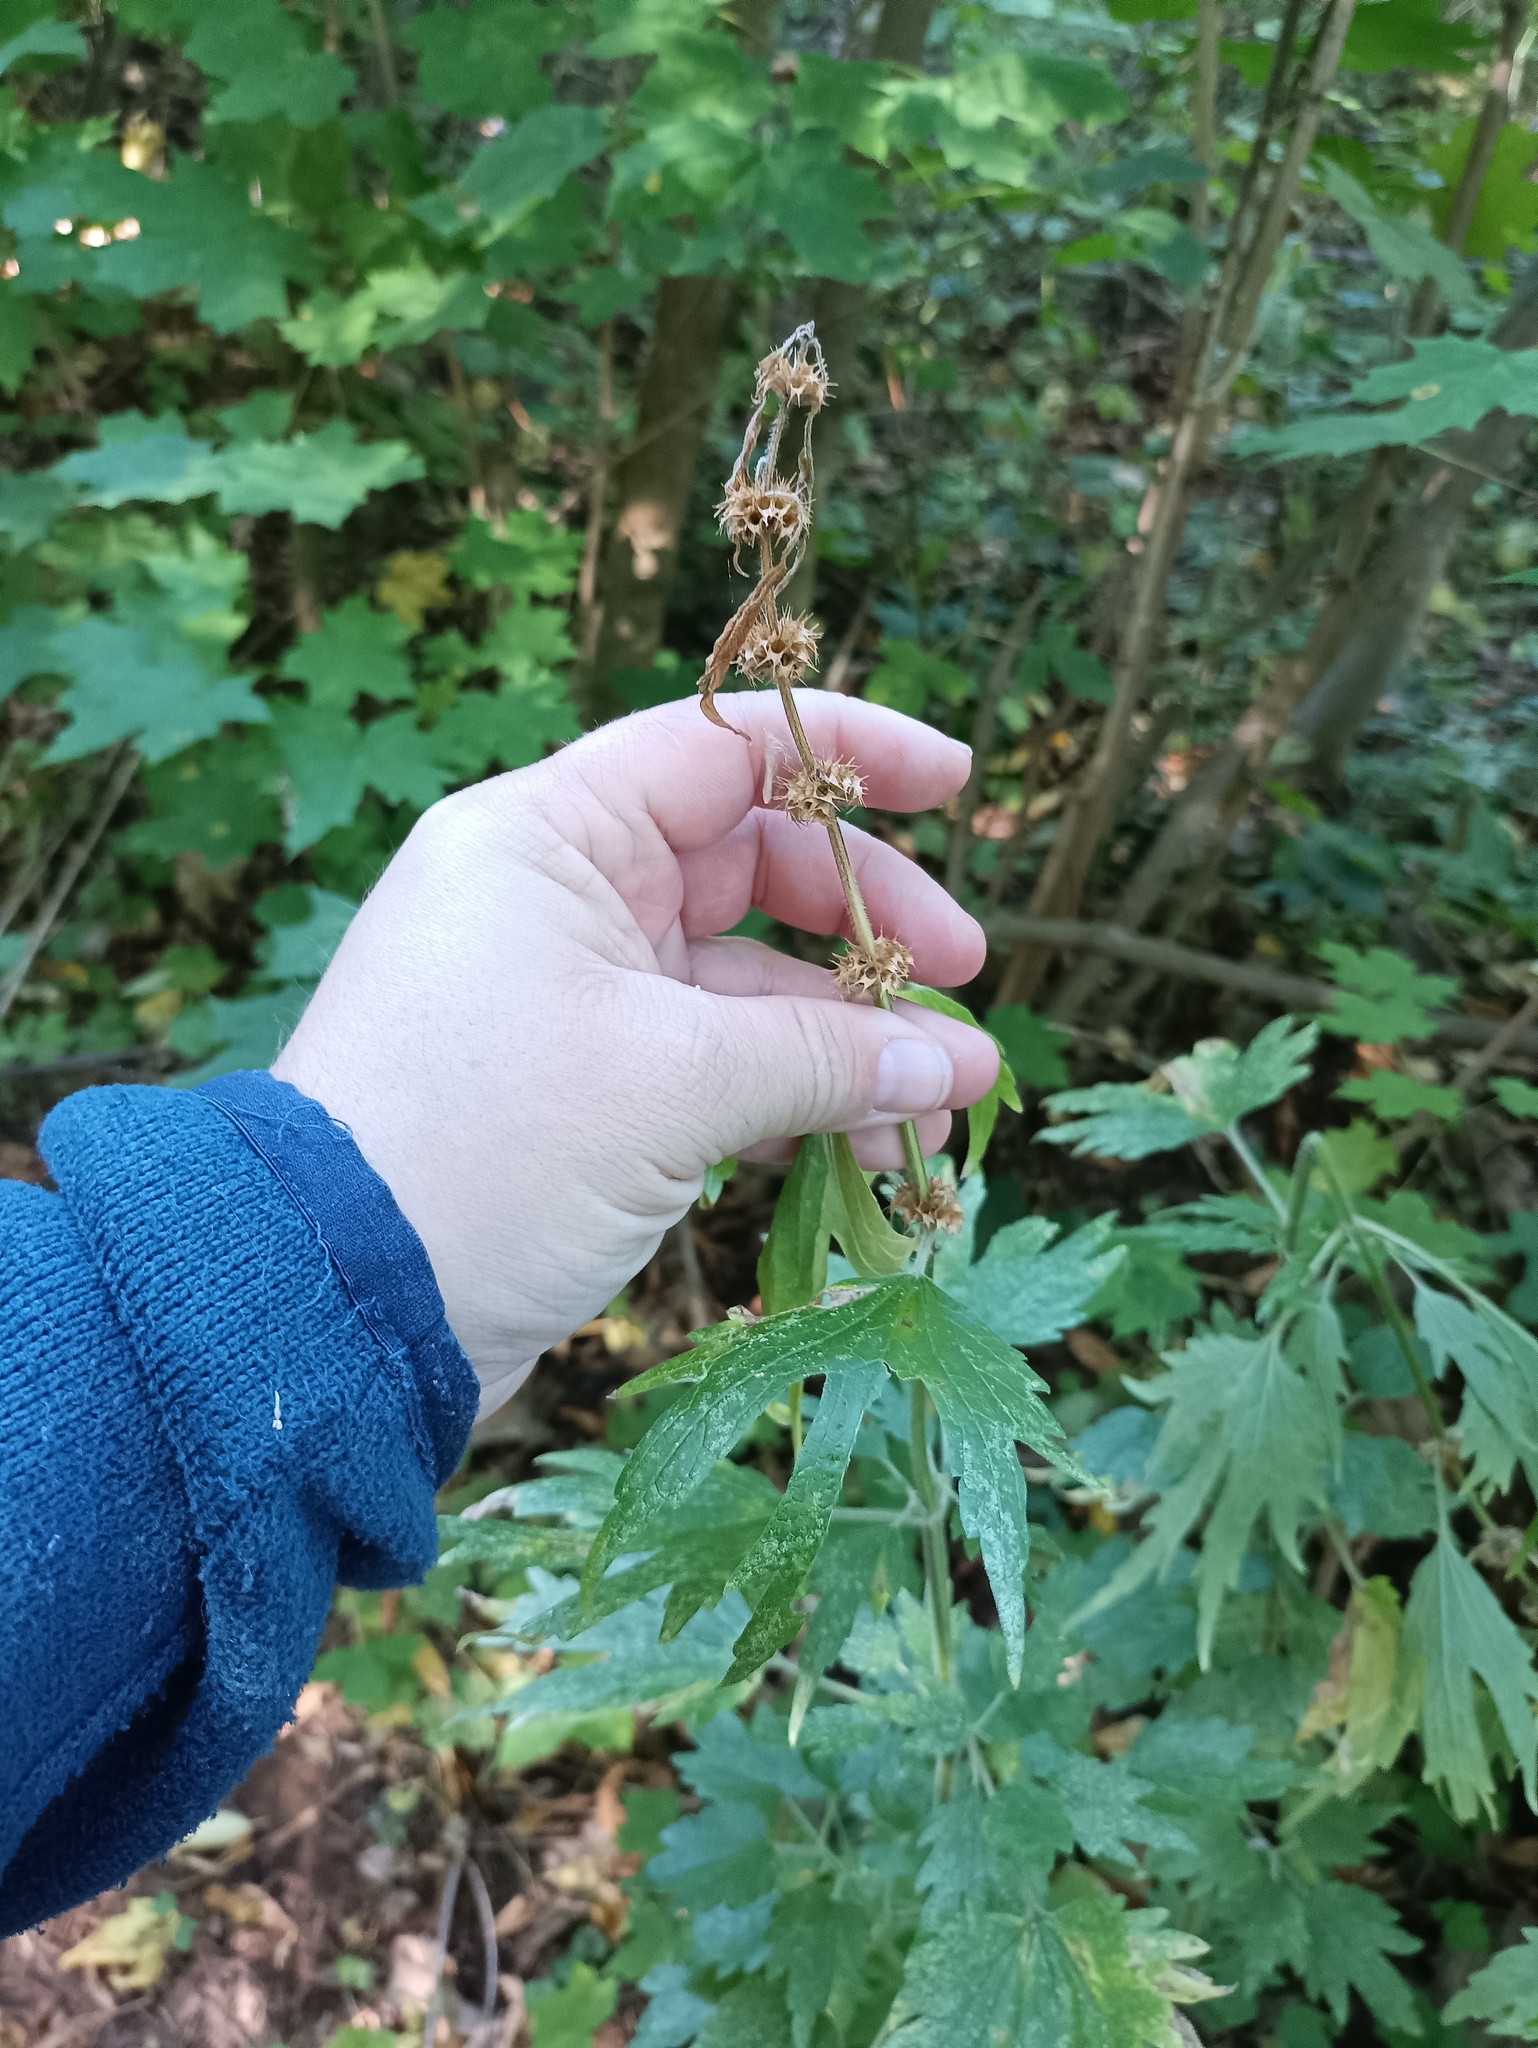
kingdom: Plantae
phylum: Tracheophyta
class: Magnoliopsida
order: Lamiales
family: Lamiaceae
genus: Leonurus
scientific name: Leonurus quinquelobatus
